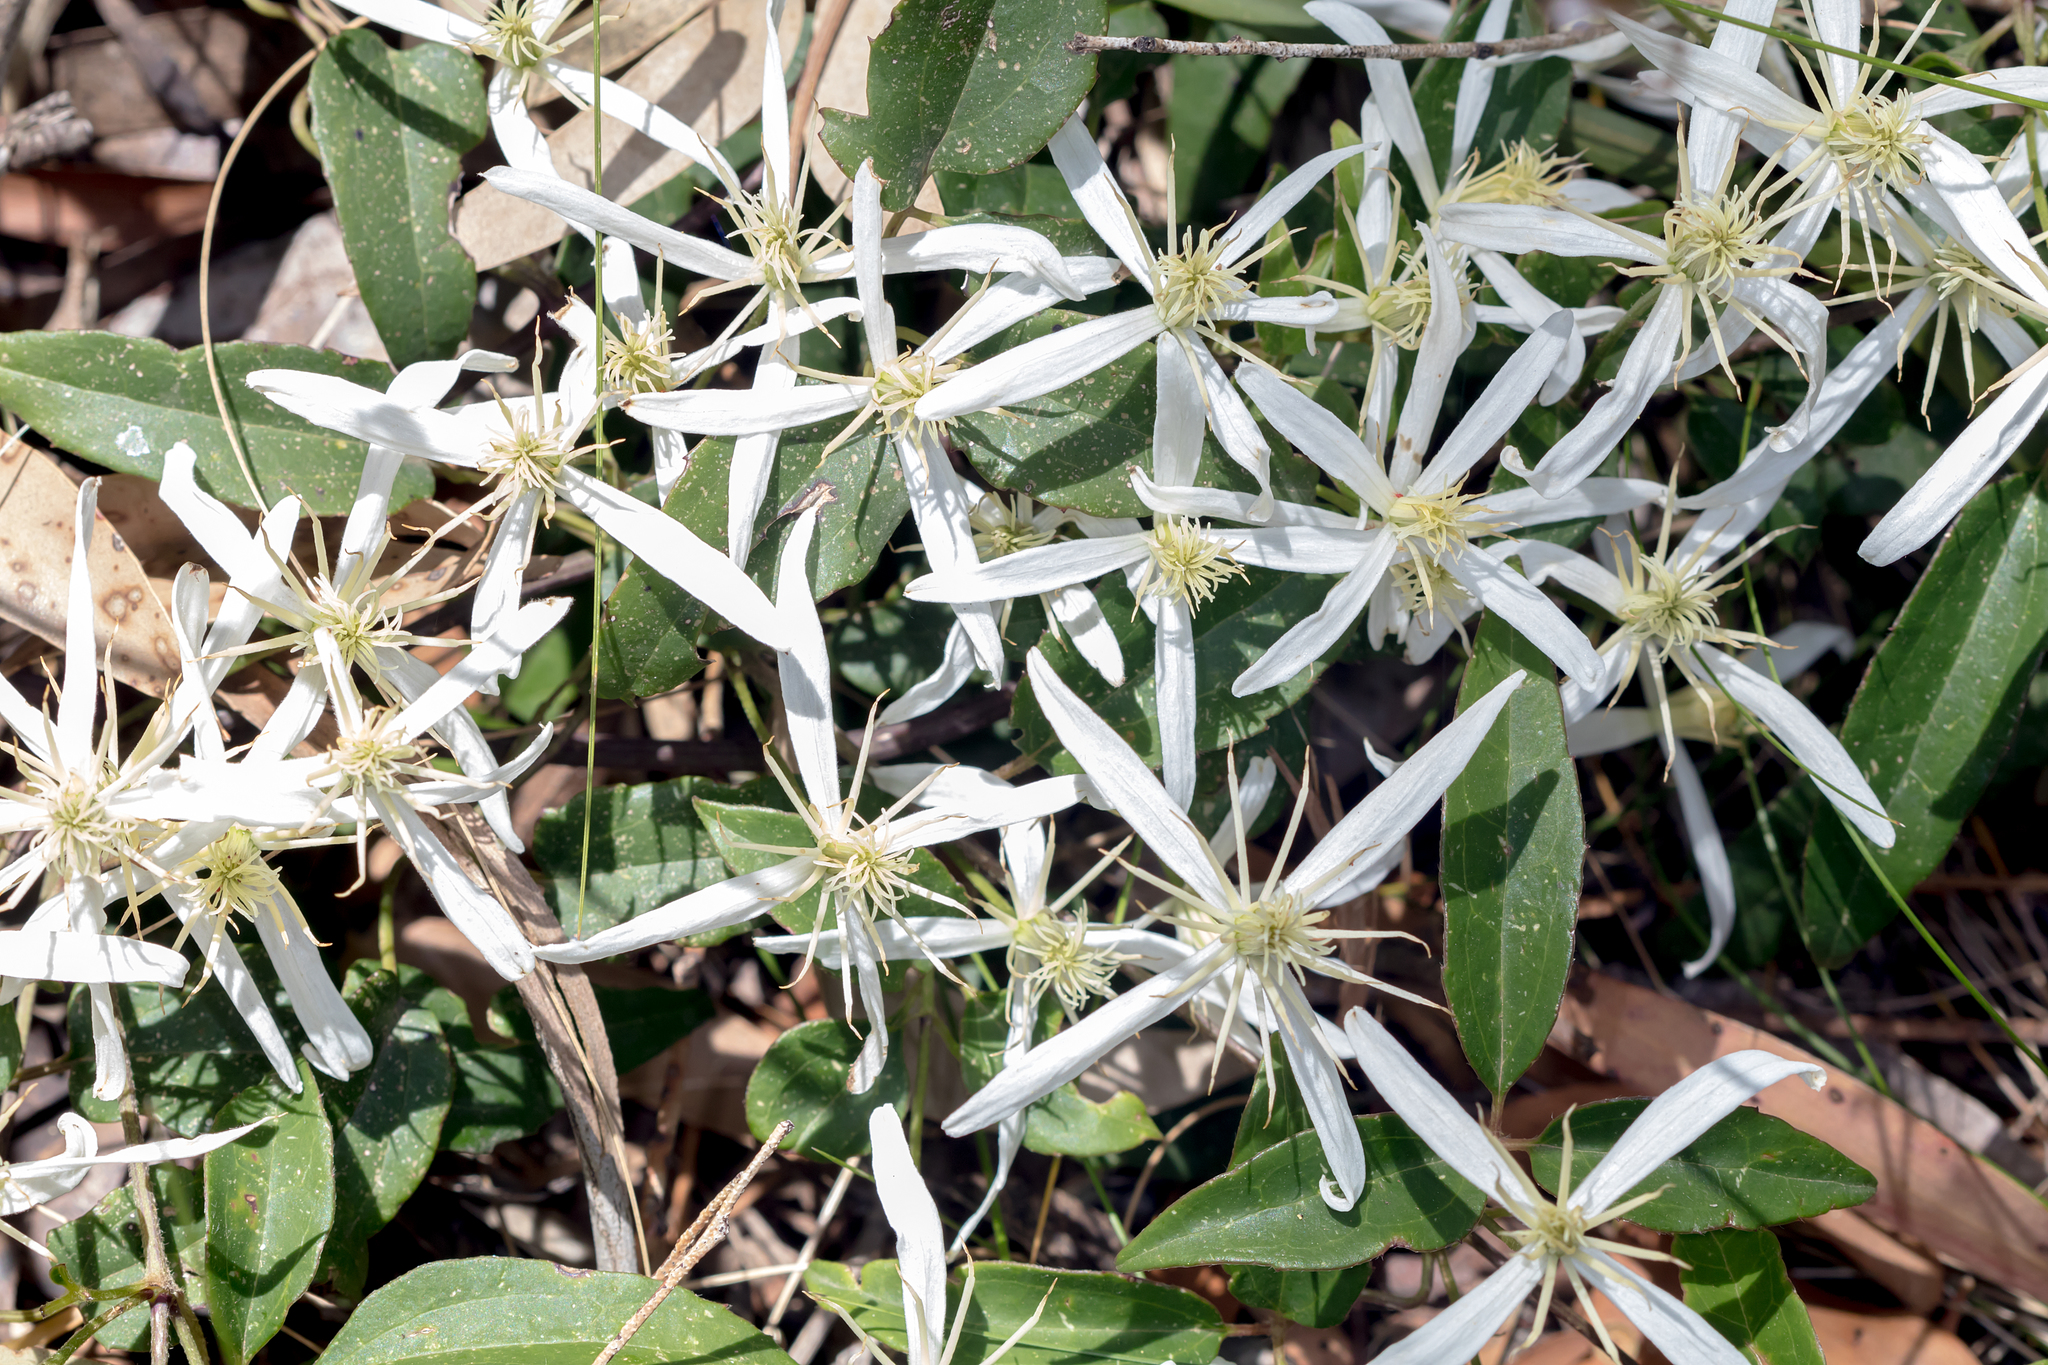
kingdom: Plantae
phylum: Tracheophyta
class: Magnoliopsida
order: Ranunculales
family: Ranunculaceae
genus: Clematis
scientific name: Clematis aristata
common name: Mountain clematis
